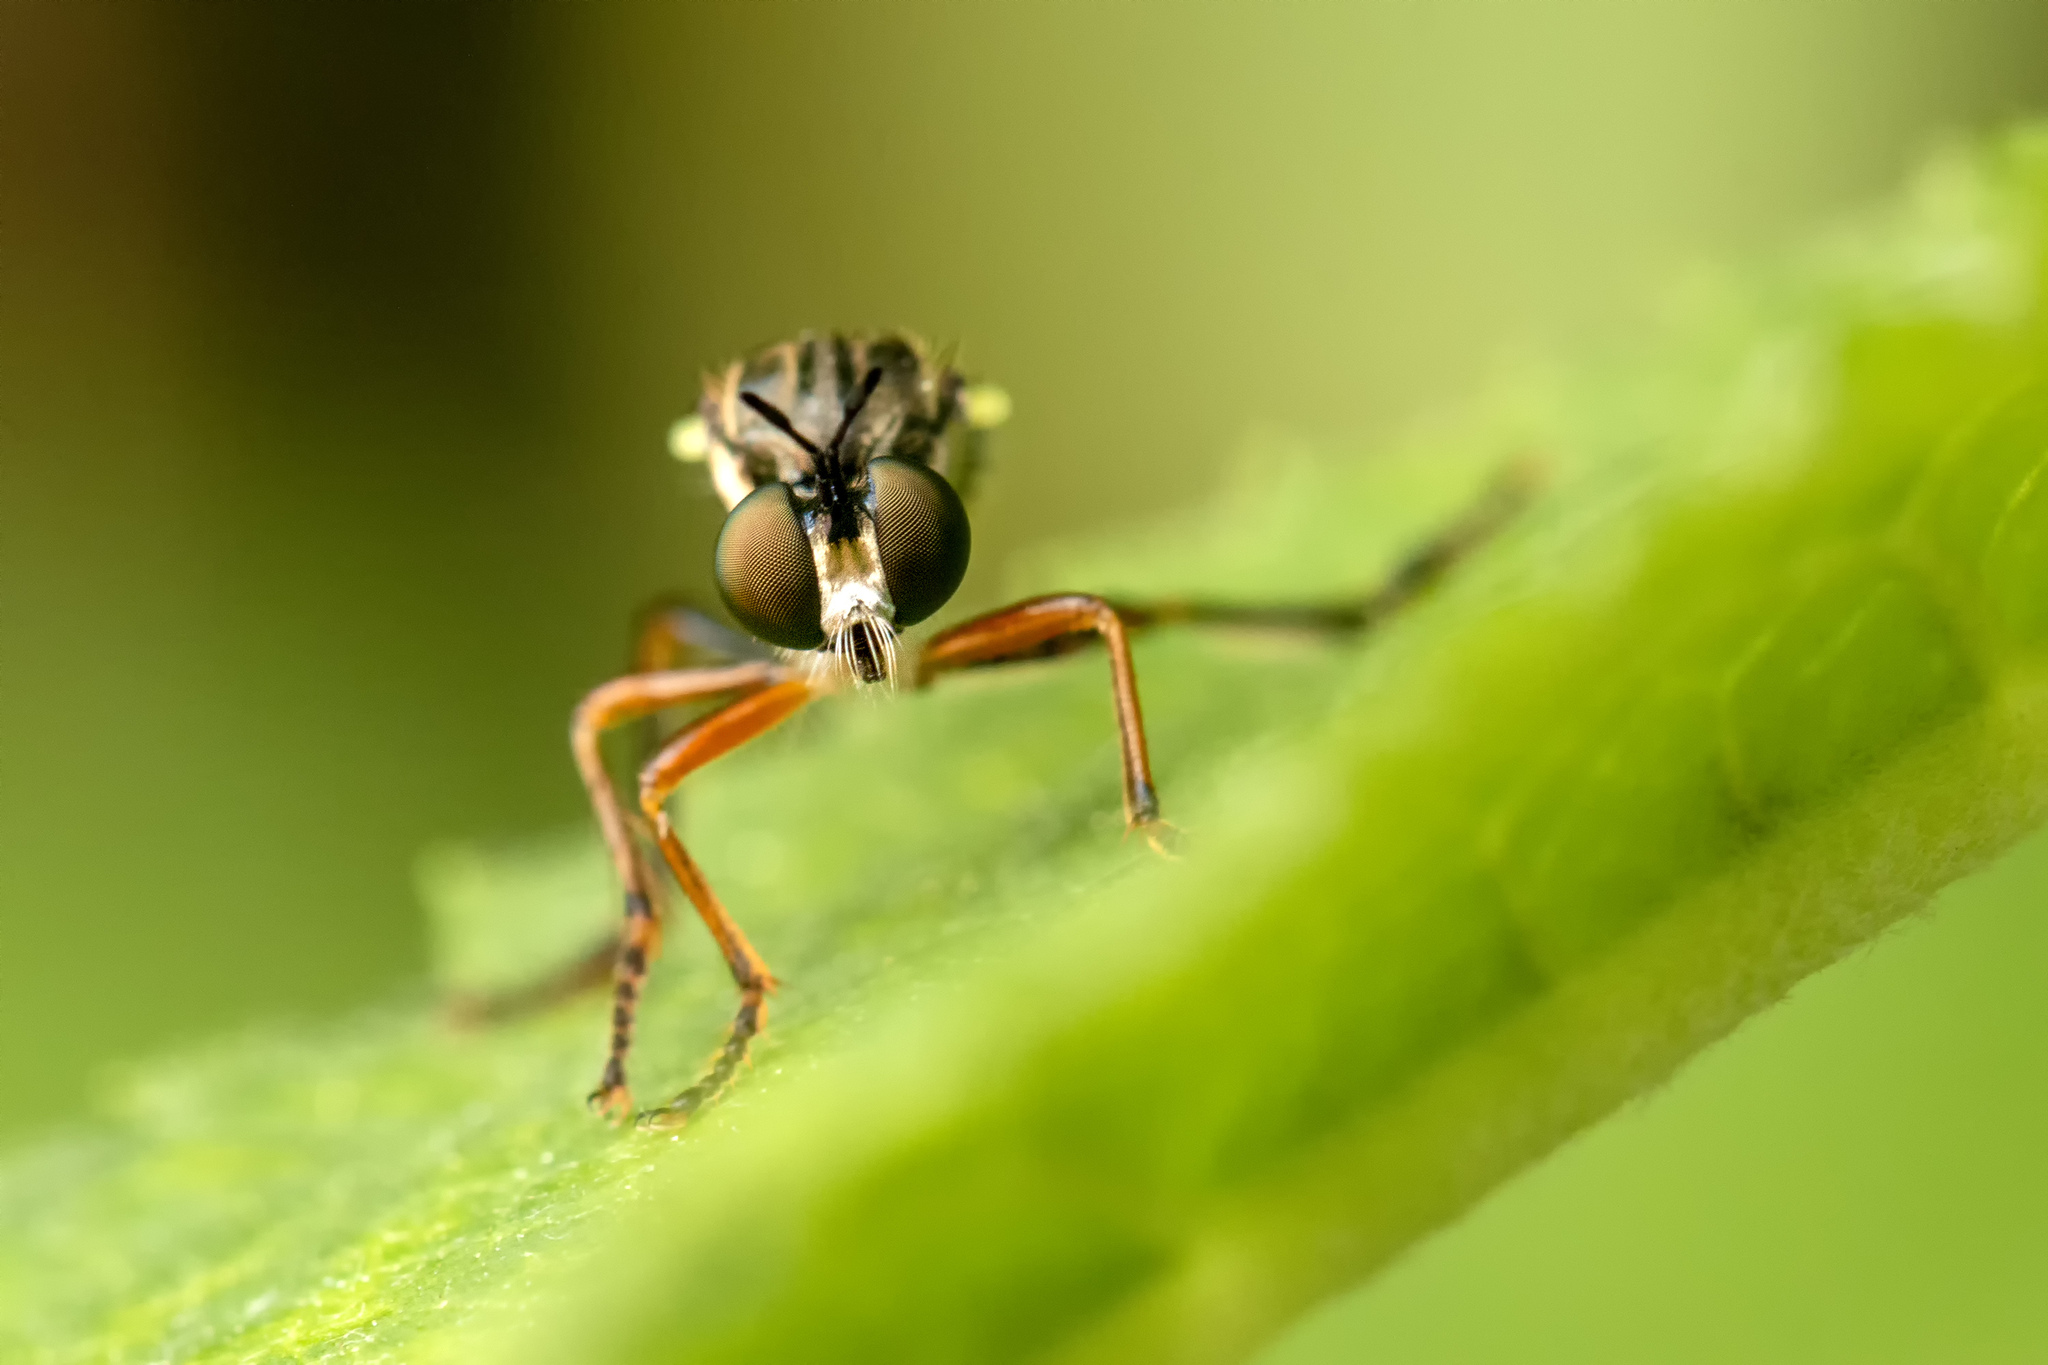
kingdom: Animalia
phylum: Arthropoda
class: Insecta
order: Diptera
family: Asilidae
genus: Dioctria
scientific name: Dioctria hyalipennis
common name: Stripe-legged robberfly
